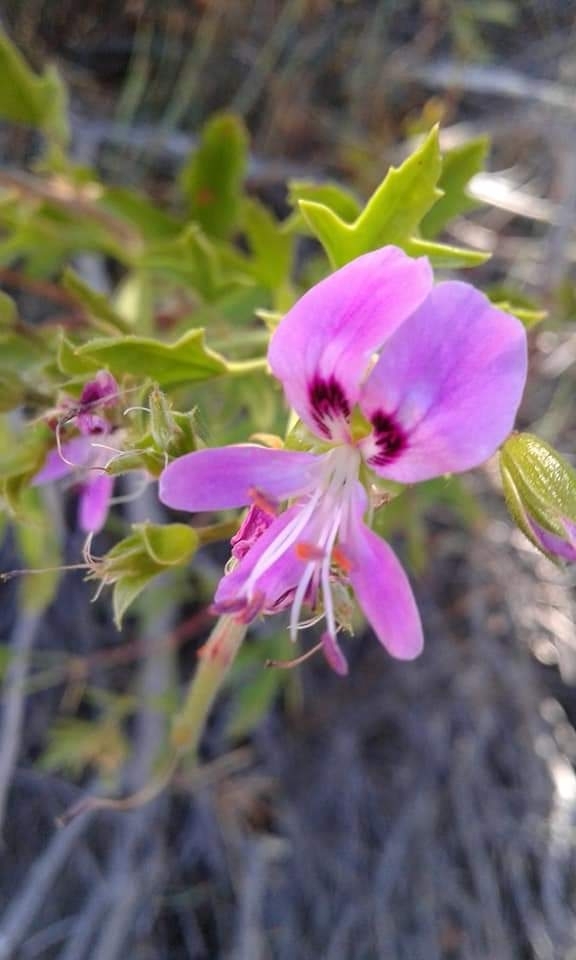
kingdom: Plantae
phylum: Tracheophyta
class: Magnoliopsida
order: Geraniales
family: Geraniaceae
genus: Pelargonium
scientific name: Pelargonium scabrum
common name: Apricot geranium
